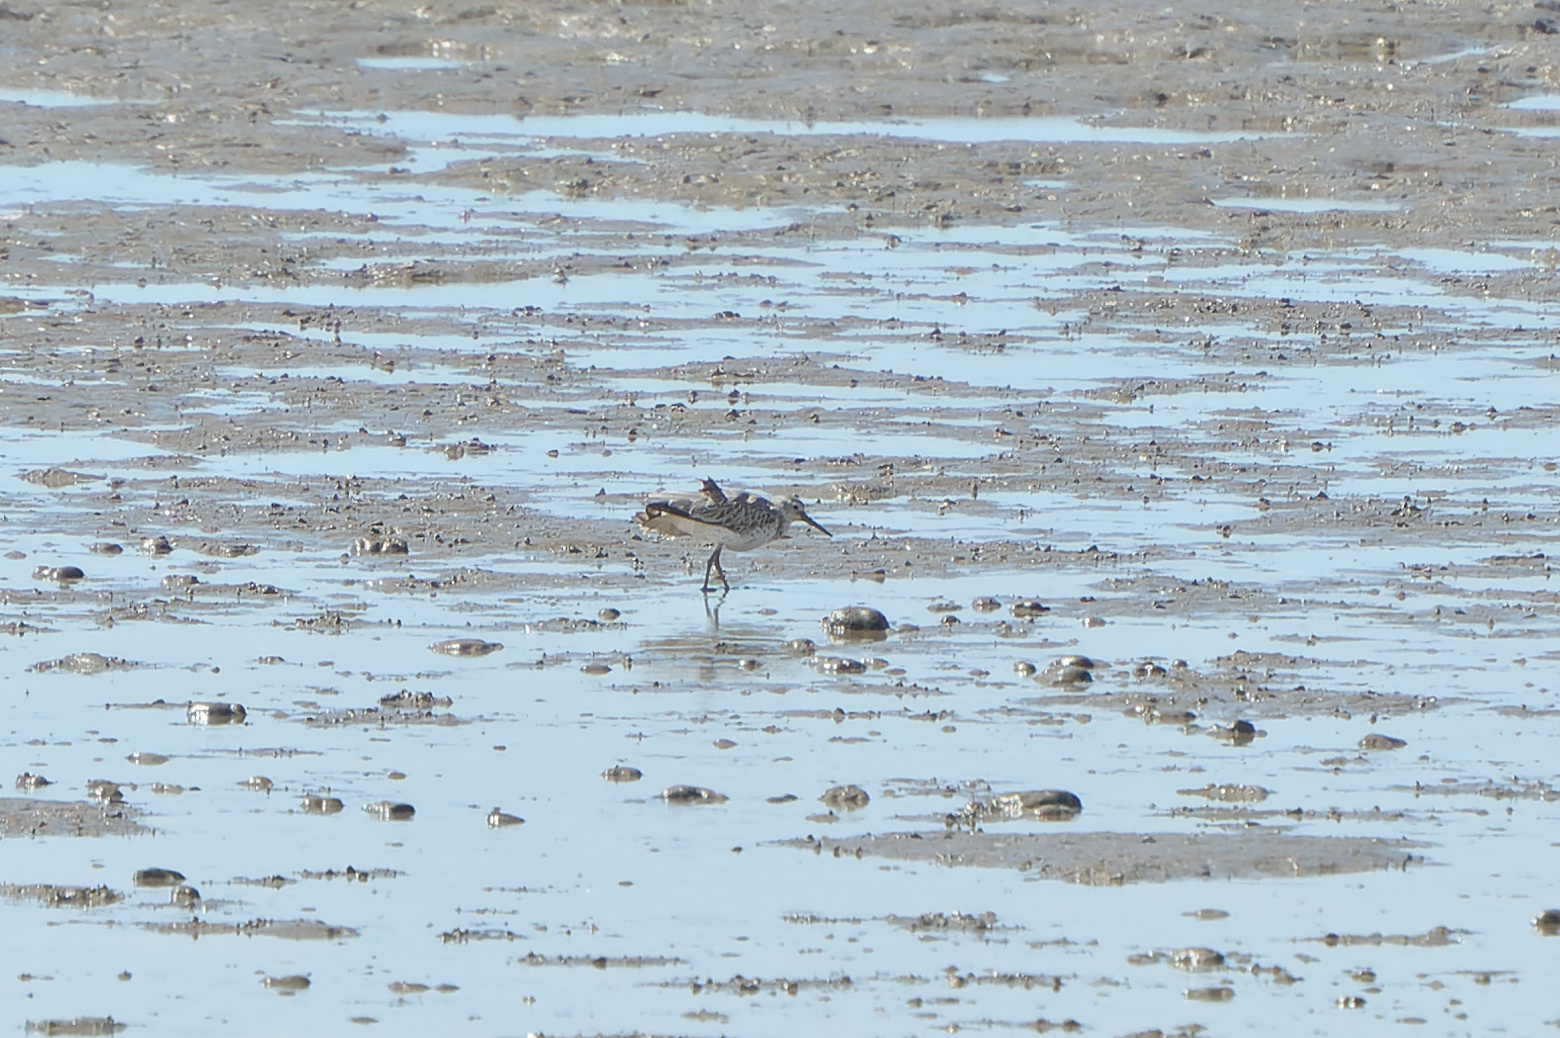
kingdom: Animalia
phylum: Chordata
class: Aves
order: Charadriiformes
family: Scolopacidae
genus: Calidris
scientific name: Calidris tenuirostris
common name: Great knot
